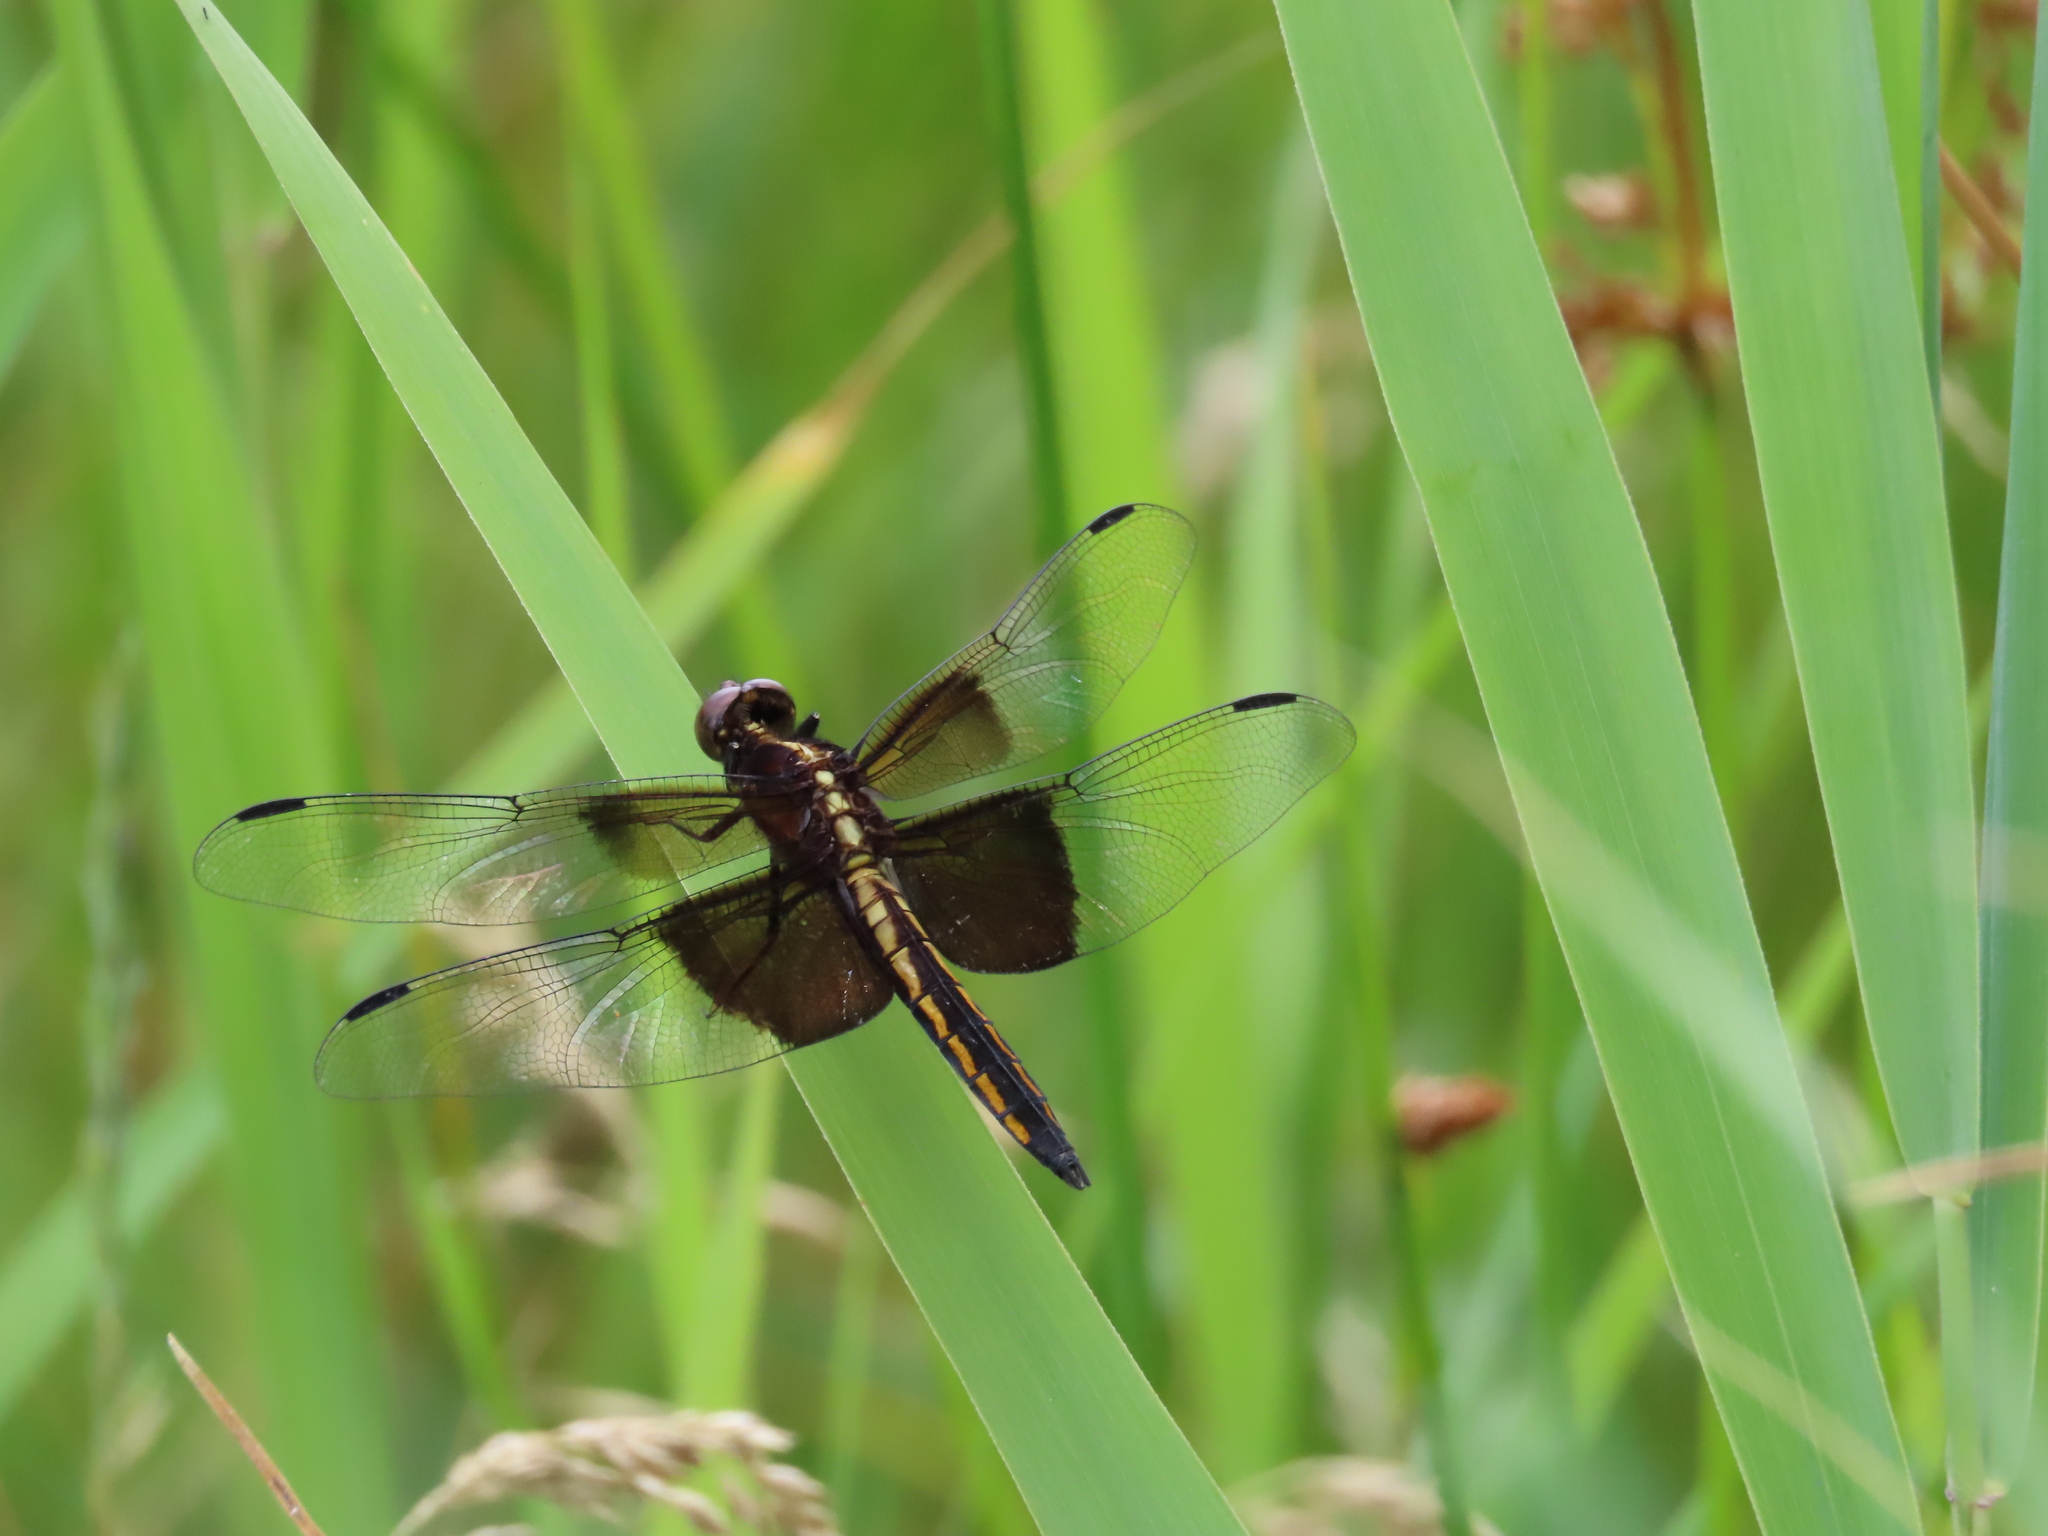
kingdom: Animalia
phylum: Arthropoda
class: Insecta
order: Odonata
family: Libellulidae
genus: Libellula
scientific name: Libellula luctuosa
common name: Widow skimmer
